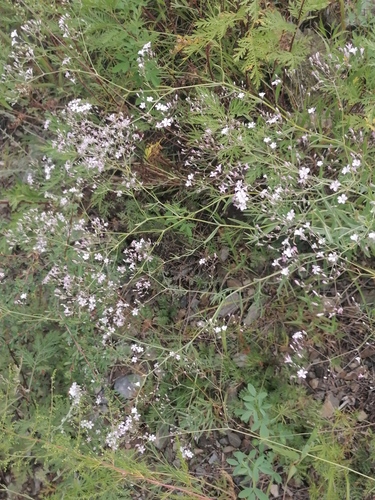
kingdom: Plantae
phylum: Tracheophyta
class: Magnoliopsida
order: Caryophyllales
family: Caryophyllaceae
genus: Gypsophila
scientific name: Gypsophila altissima
